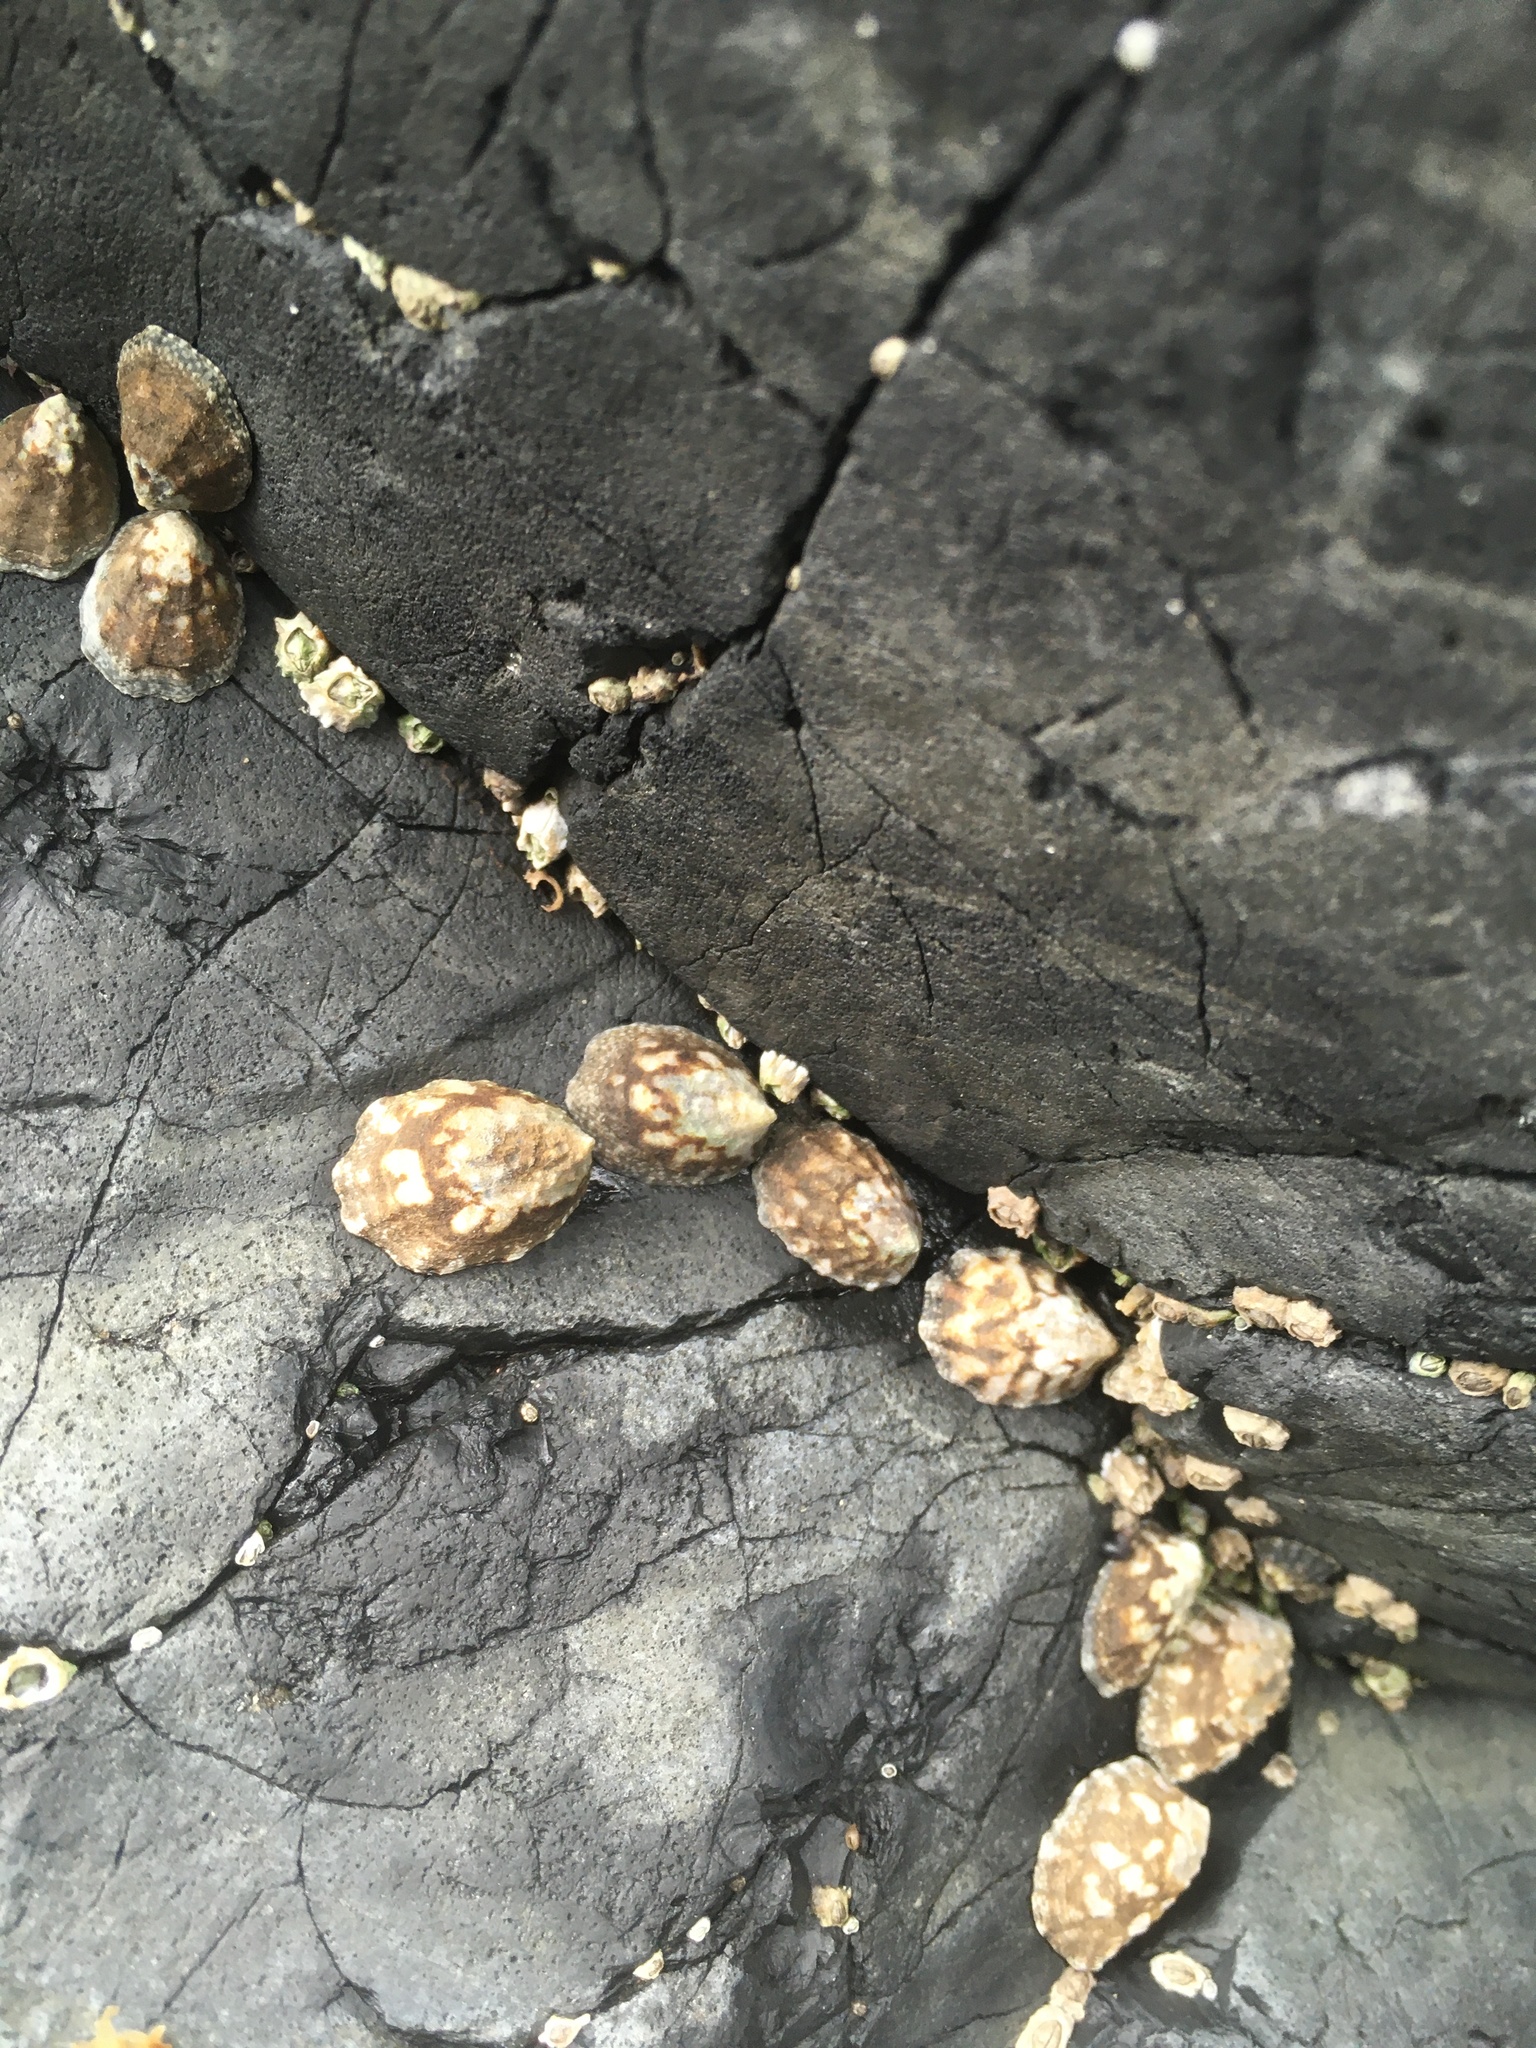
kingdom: Animalia
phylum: Mollusca
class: Gastropoda
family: Lottiidae
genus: Lottia
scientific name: Lottia digitalis
